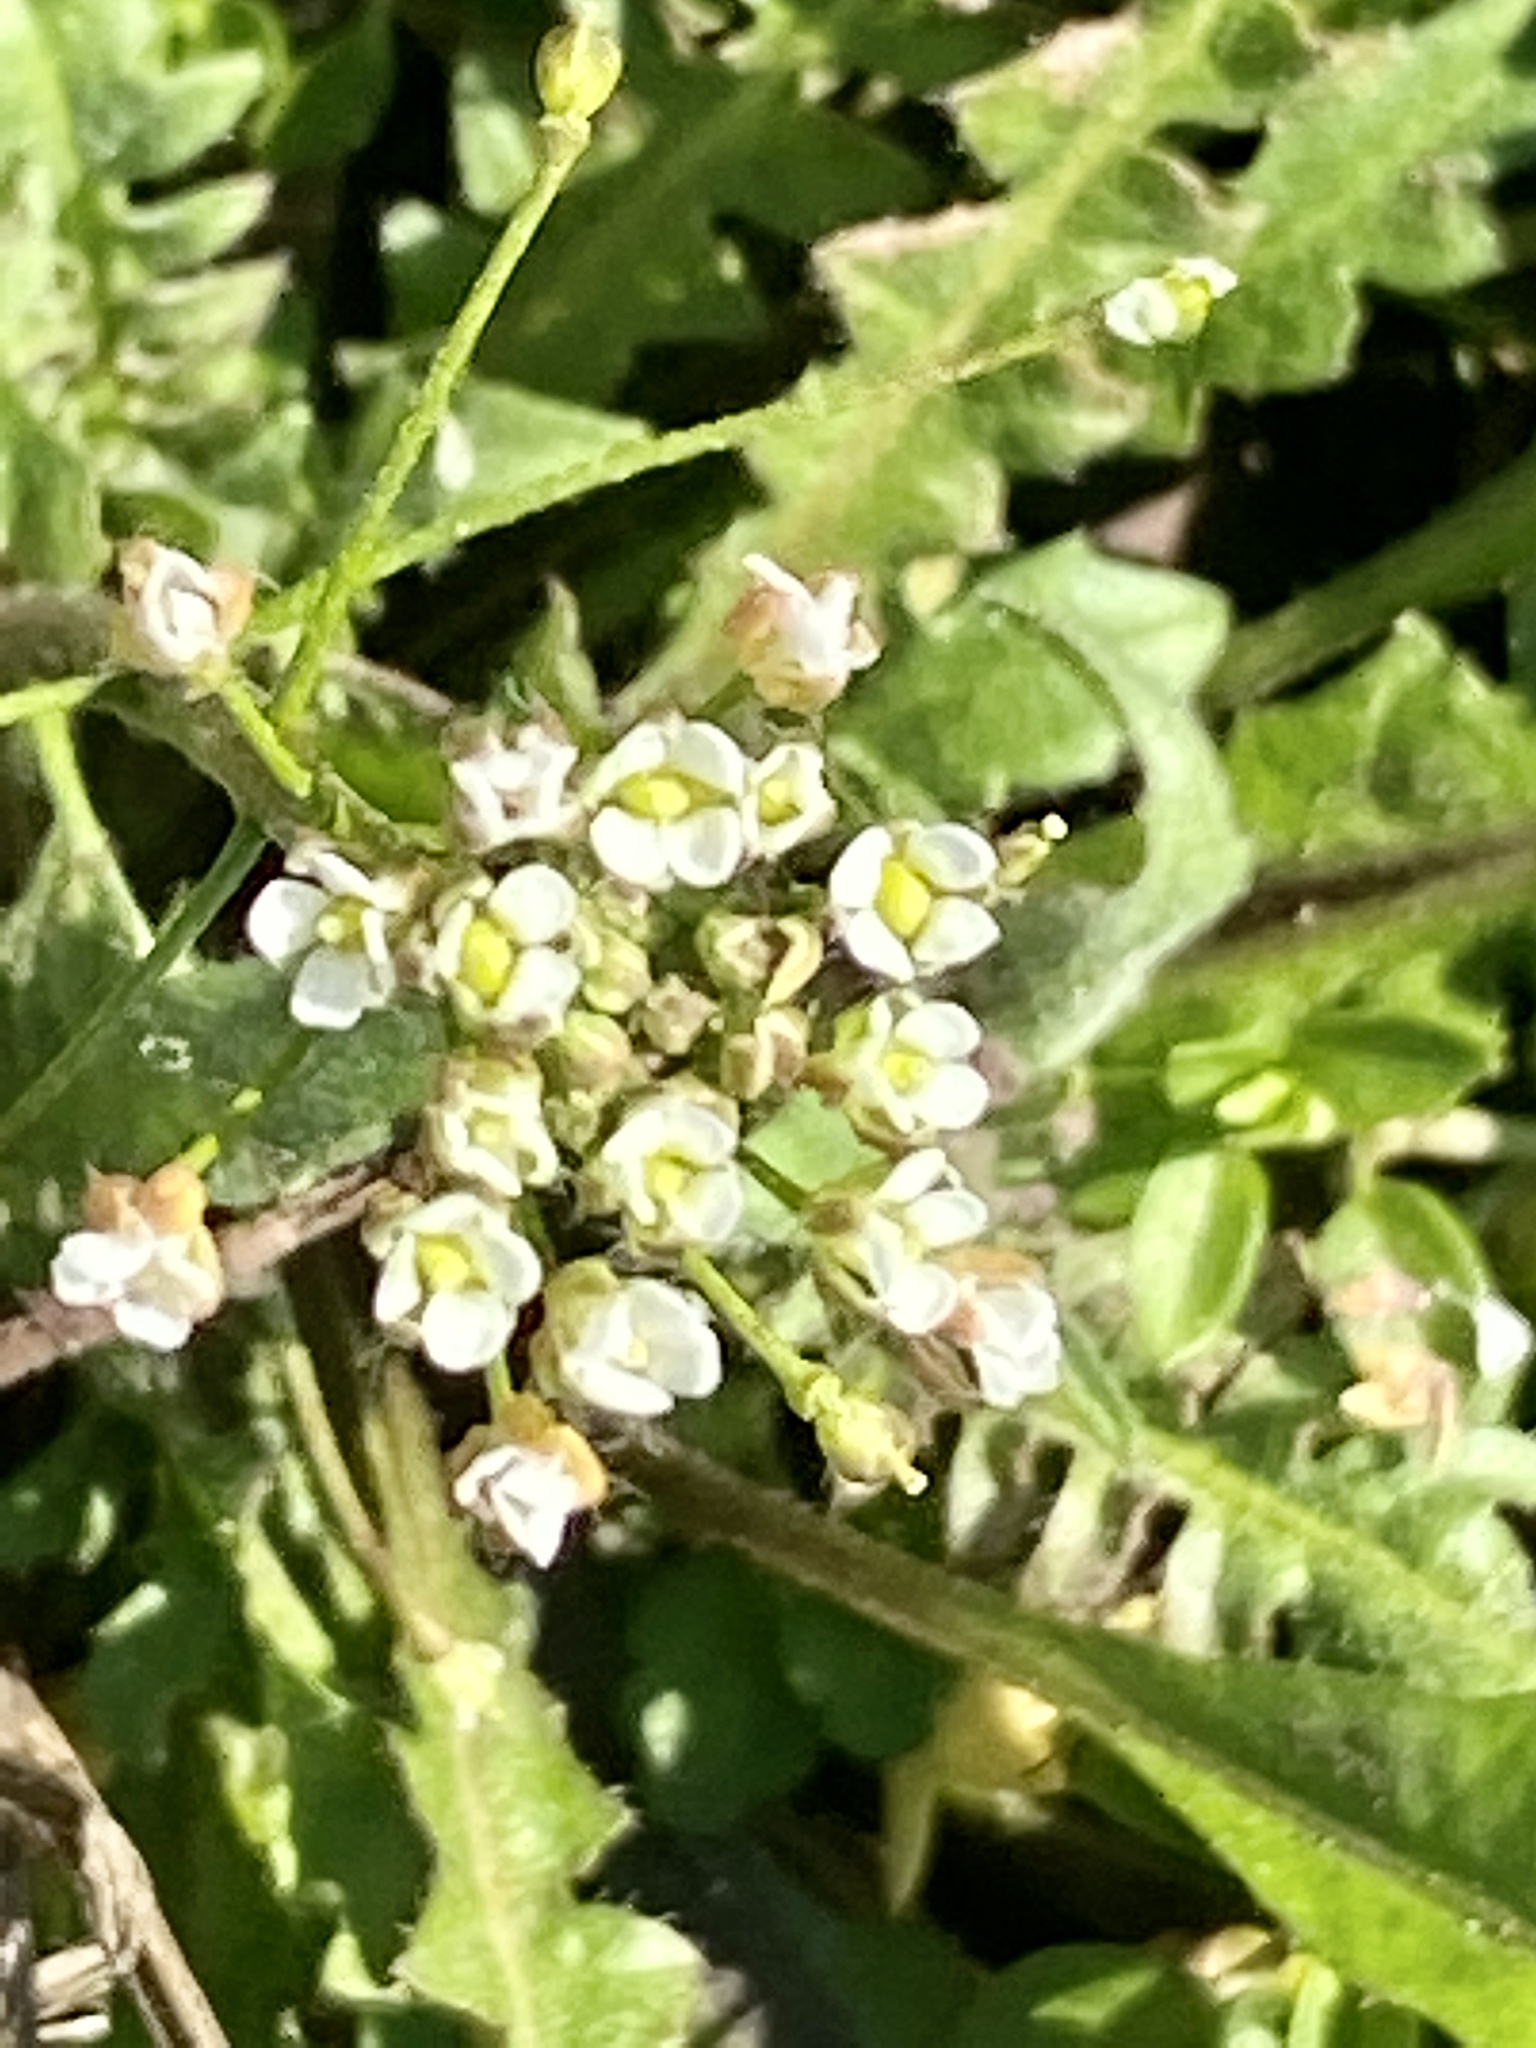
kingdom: Plantae
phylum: Tracheophyta
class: Magnoliopsida
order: Brassicales
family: Brassicaceae
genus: Capsella
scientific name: Capsella bursa-pastoris
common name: Shepherd's purse
